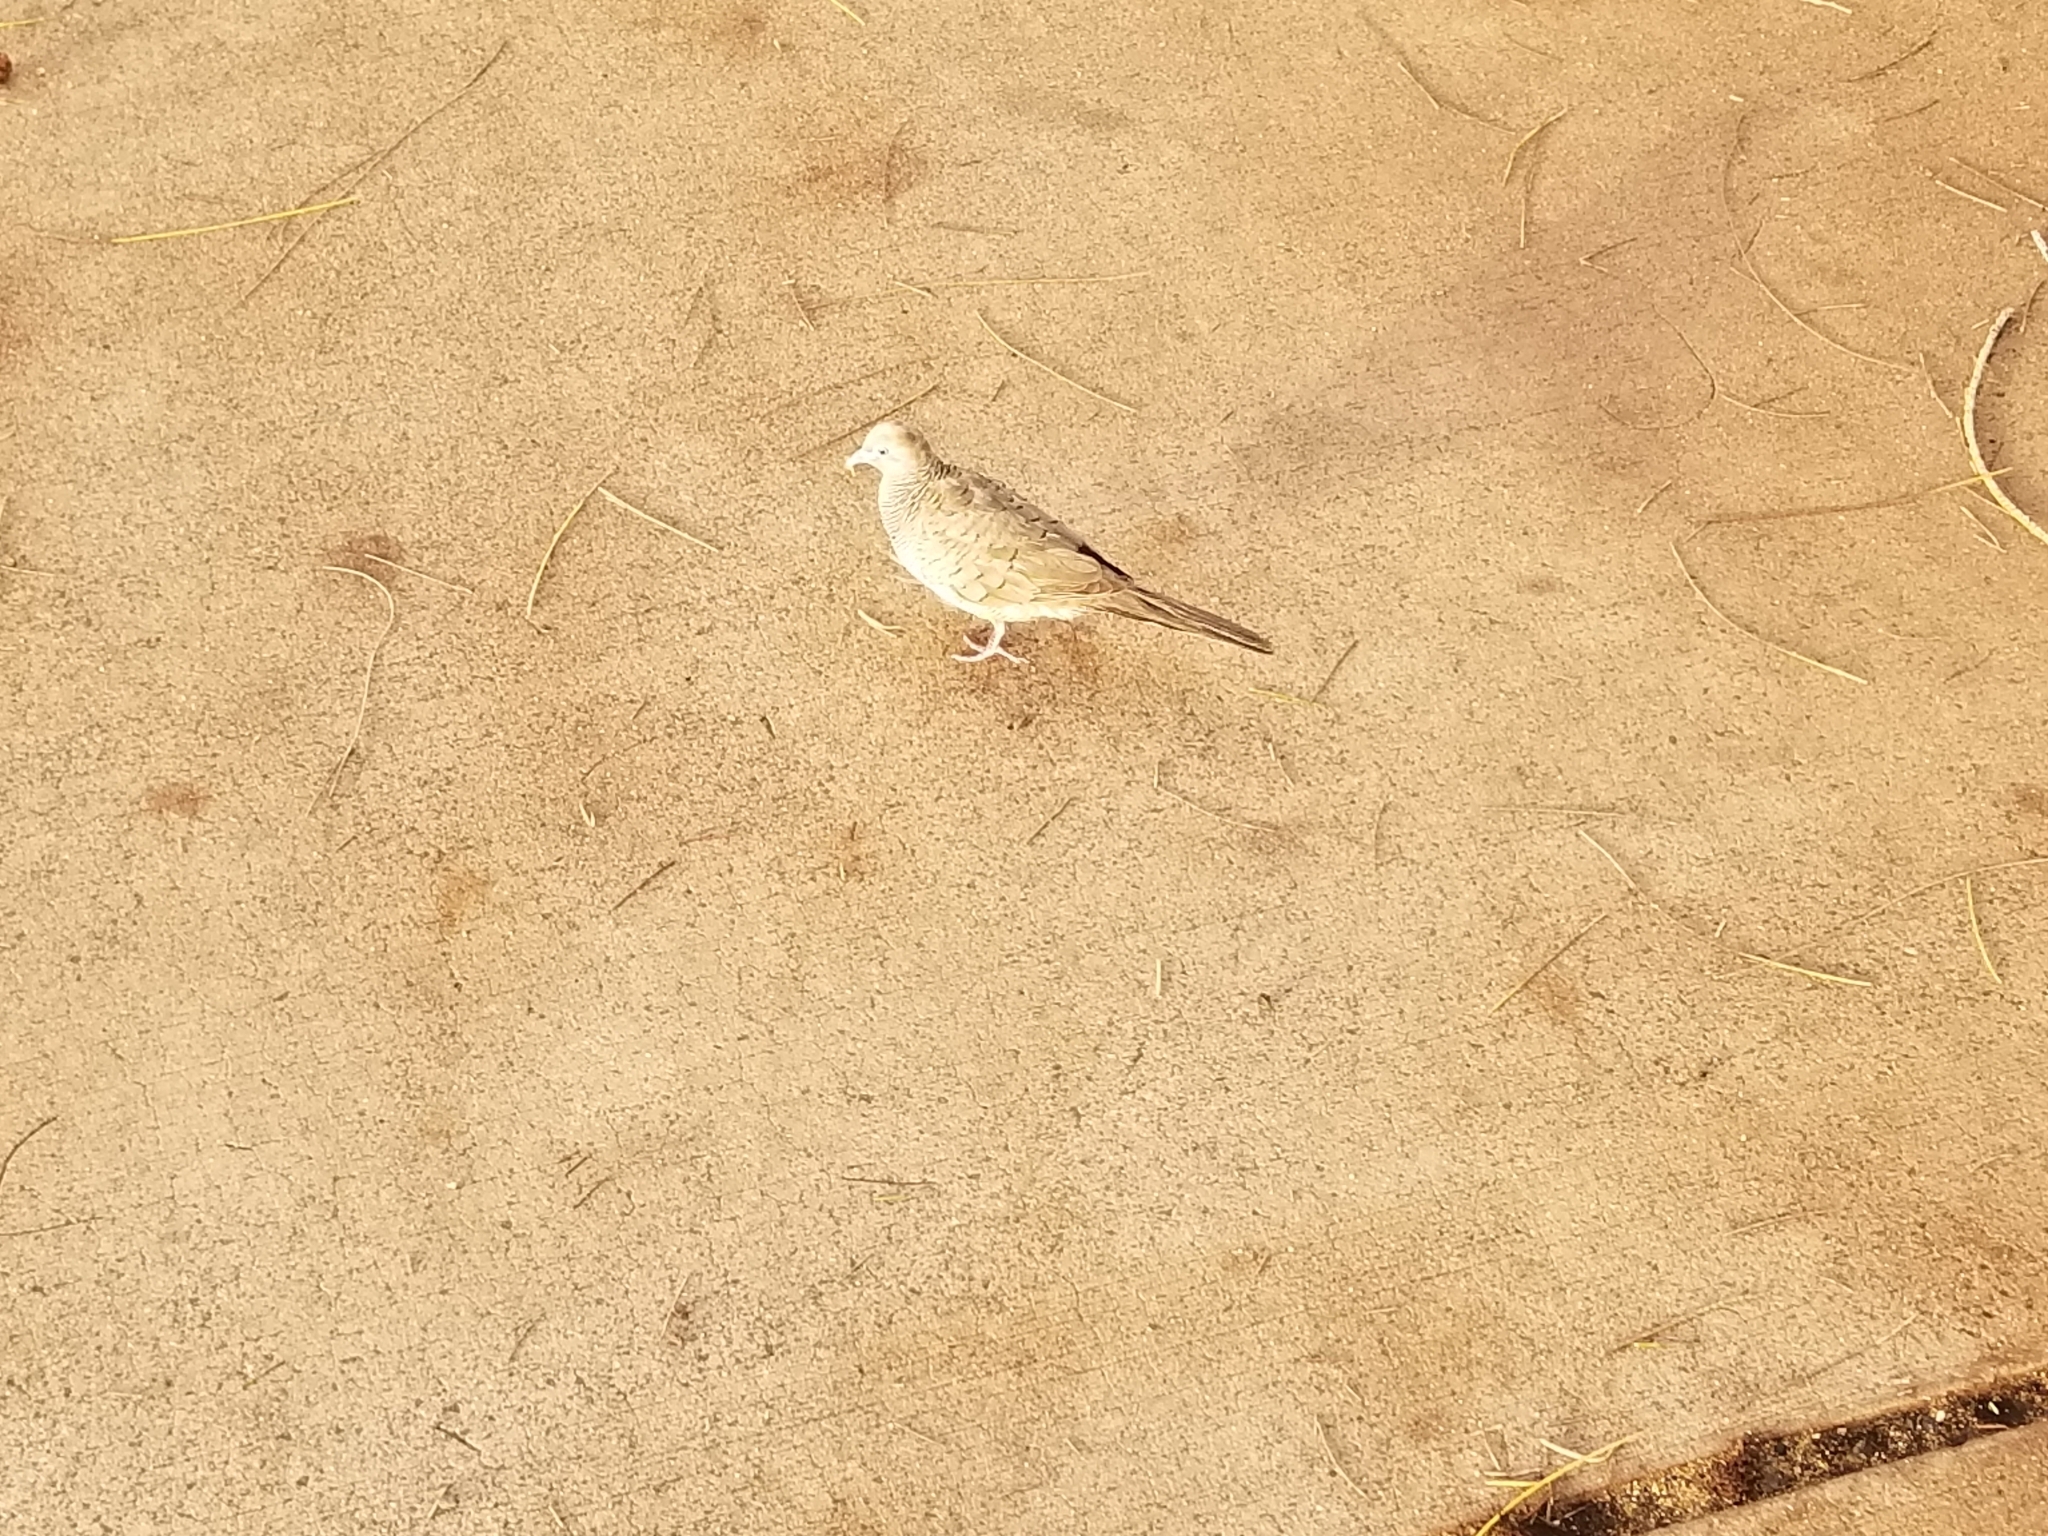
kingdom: Animalia
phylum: Chordata
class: Aves
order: Columbiformes
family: Columbidae
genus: Geopelia
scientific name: Geopelia striata
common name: Zebra dove
